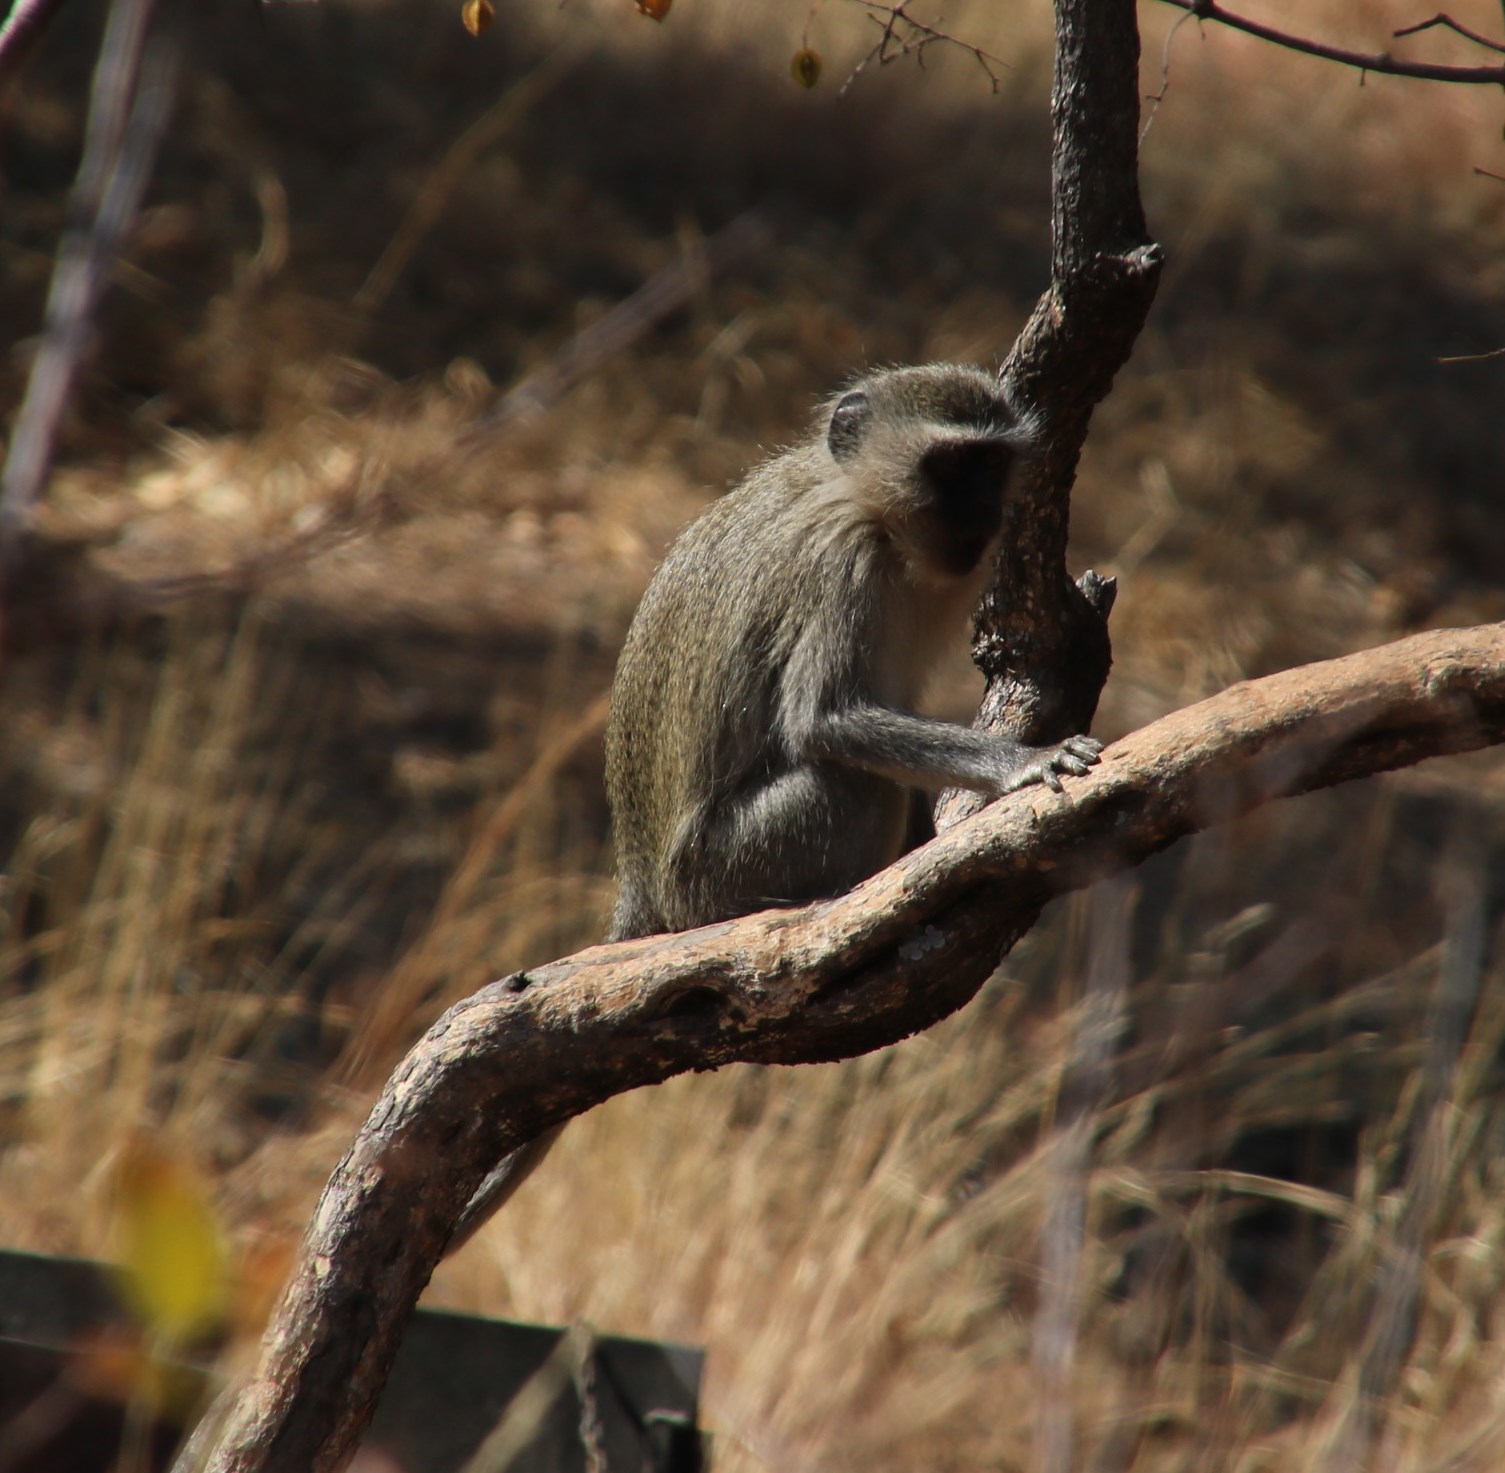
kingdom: Animalia
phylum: Chordata
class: Mammalia
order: Primates
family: Cercopithecidae
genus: Chlorocebus
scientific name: Chlorocebus pygerythrus
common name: Vervet monkey
